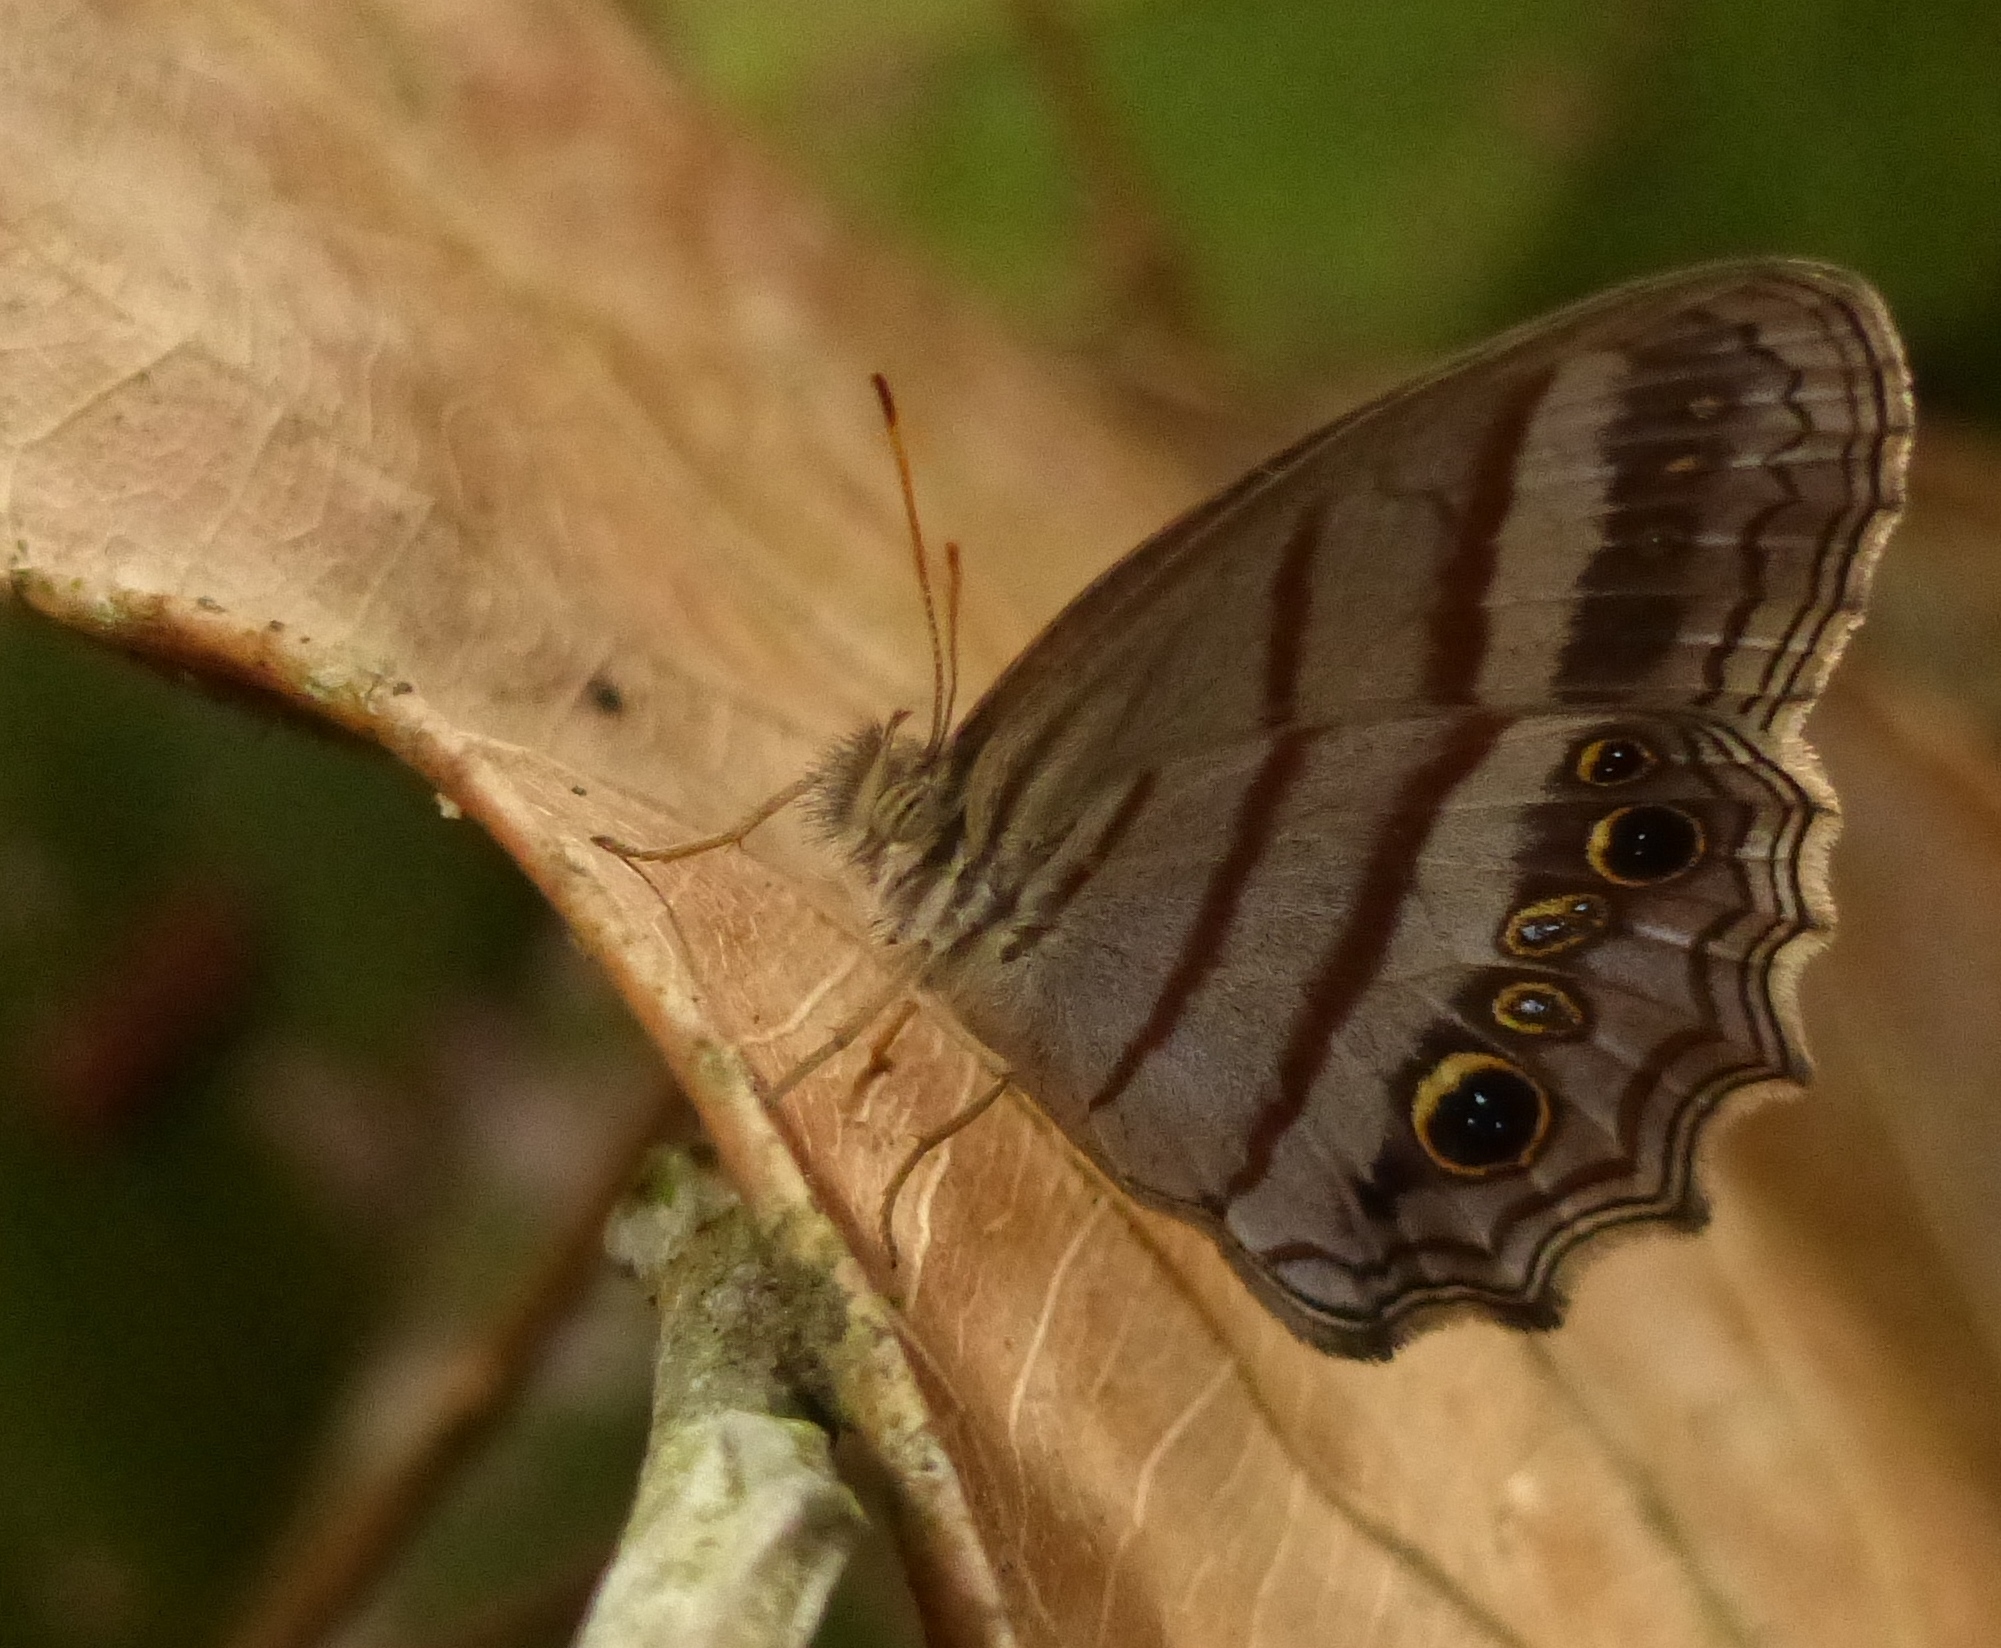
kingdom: Animalia
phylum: Arthropoda
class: Insecta
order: Lepidoptera
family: Nymphalidae
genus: Magneuptychia
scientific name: Magneuptychia libye
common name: Blue-gray satyr
